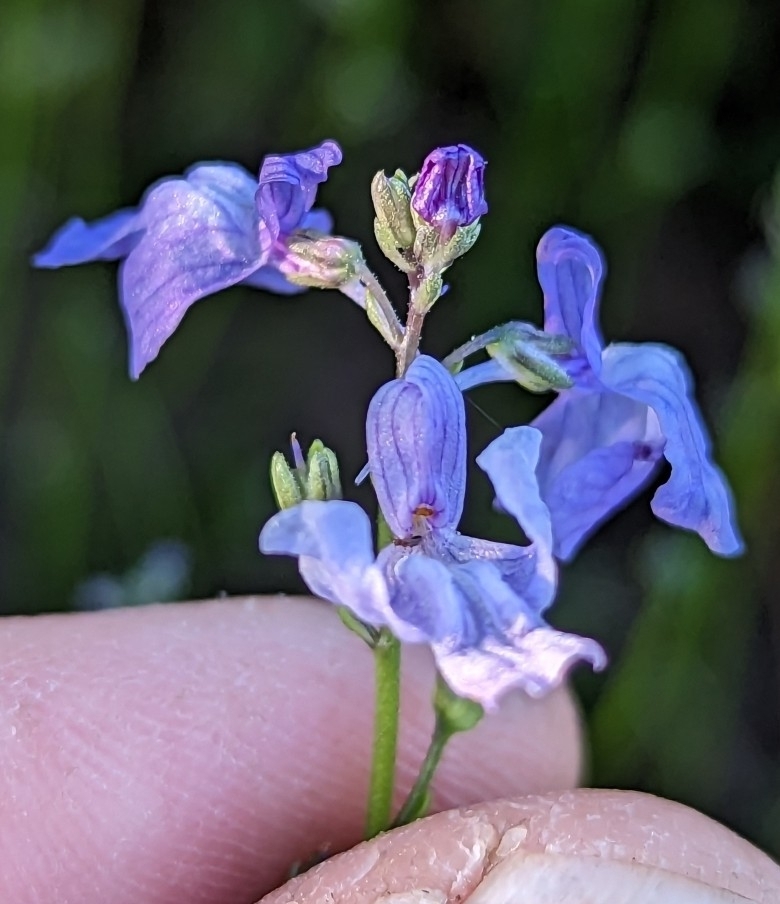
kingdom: Plantae
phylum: Tracheophyta
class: Magnoliopsida
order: Lamiales
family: Plantaginaceae
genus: Nuttallanthus
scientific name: Nuttallanthus texanus
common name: Texas toadflax
